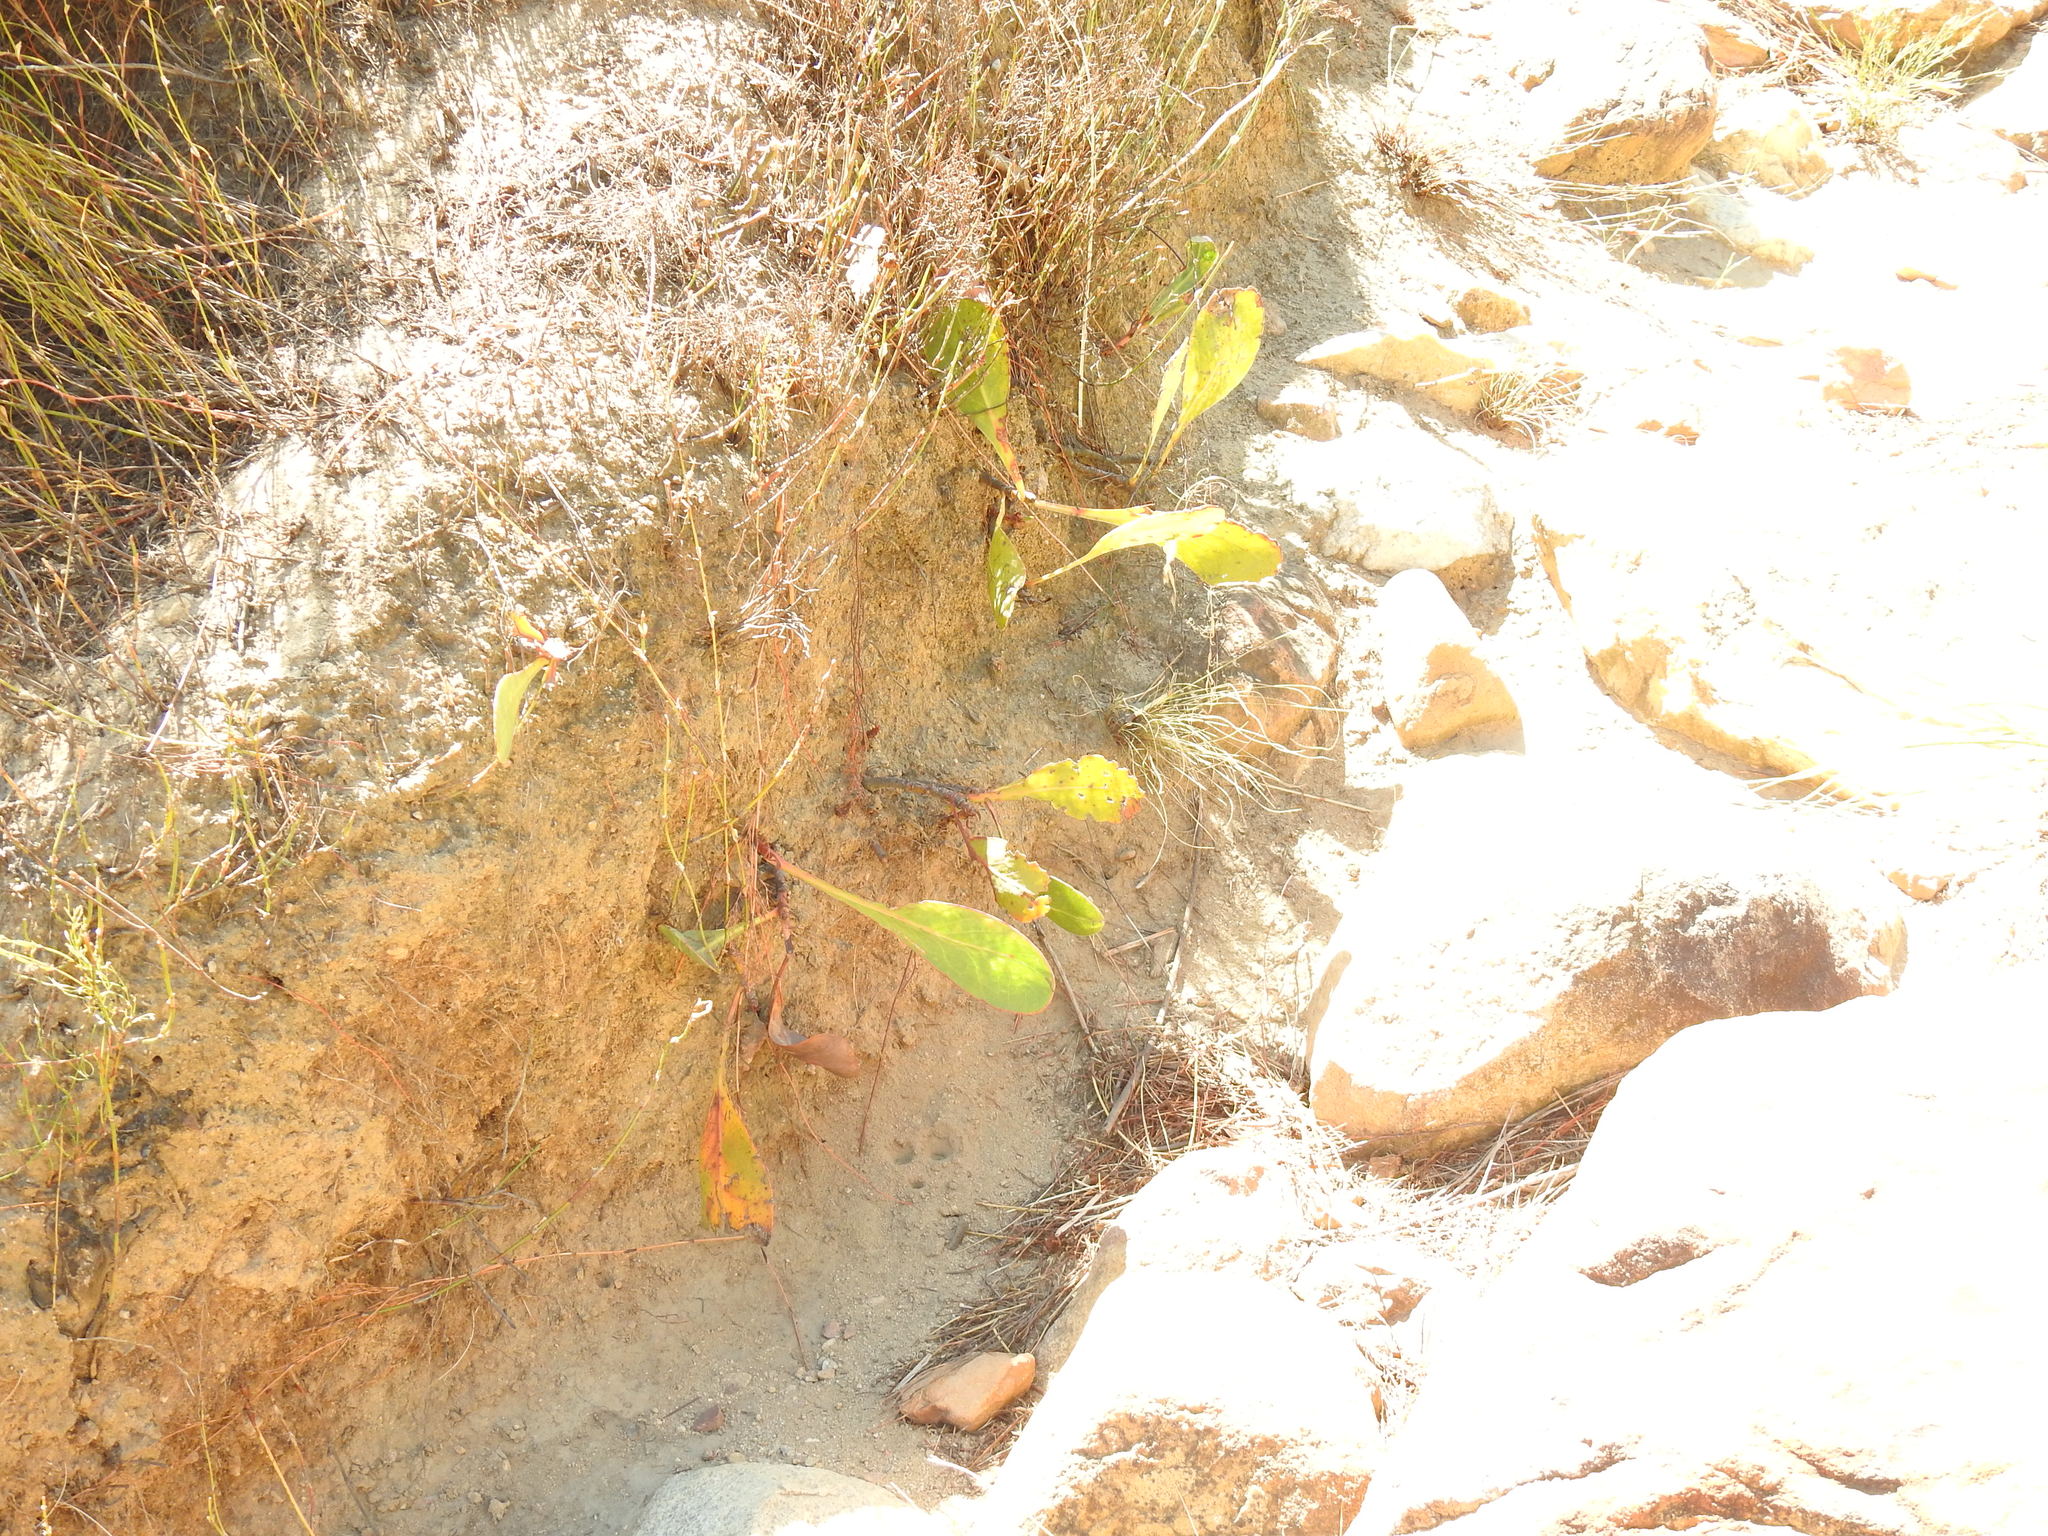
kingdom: Plantae
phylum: Tracheophyta
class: Magnoliopsida
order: Proteales
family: Proteaceae
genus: Protea
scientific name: Protea acaulos
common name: Common ground sugarbush
